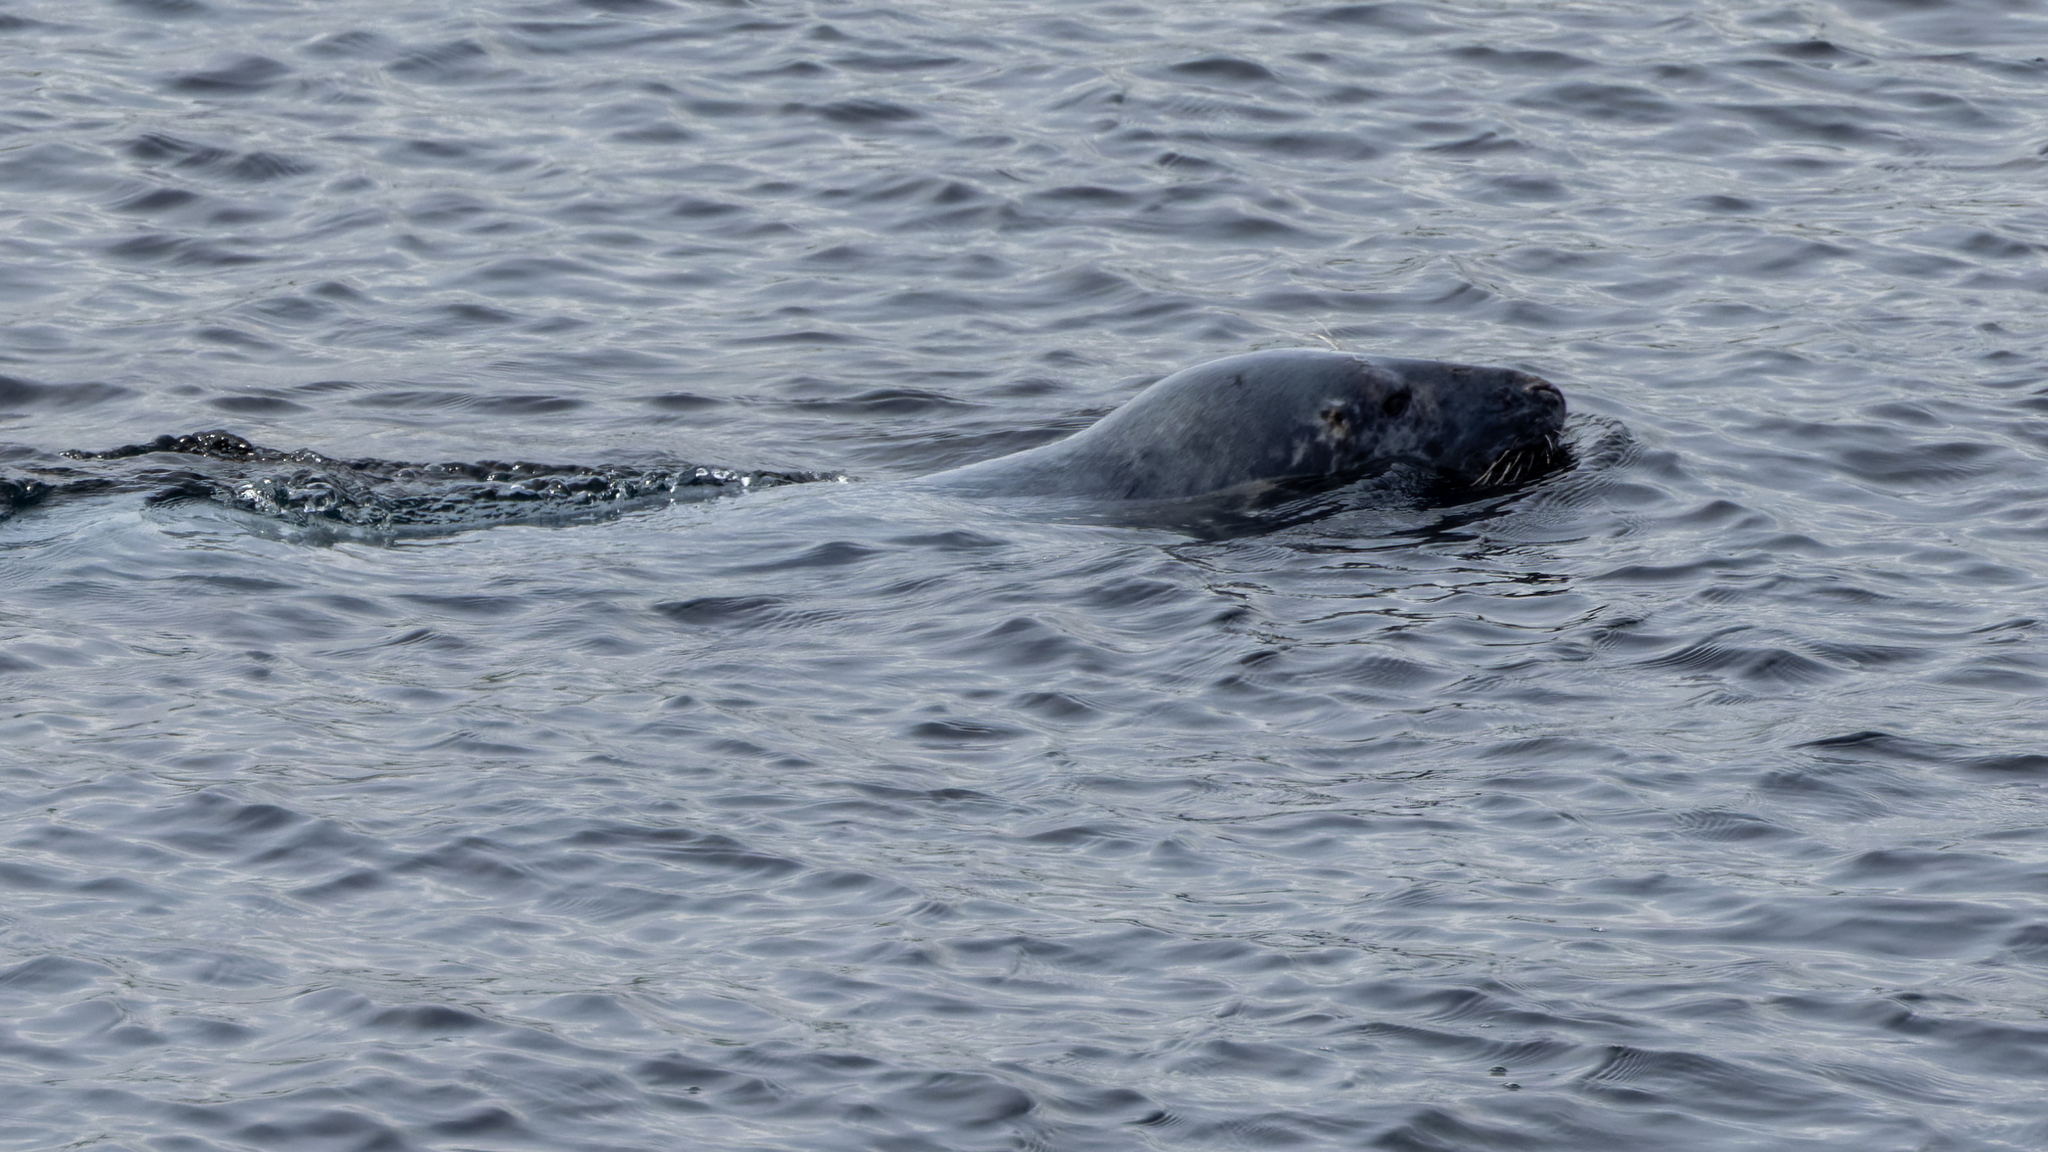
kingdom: Animalia
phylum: Chordata
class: Mammalia
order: Carnivora
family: Phocidae
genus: Halichoerus
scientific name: Halichoerus grypus
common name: Grey seal
